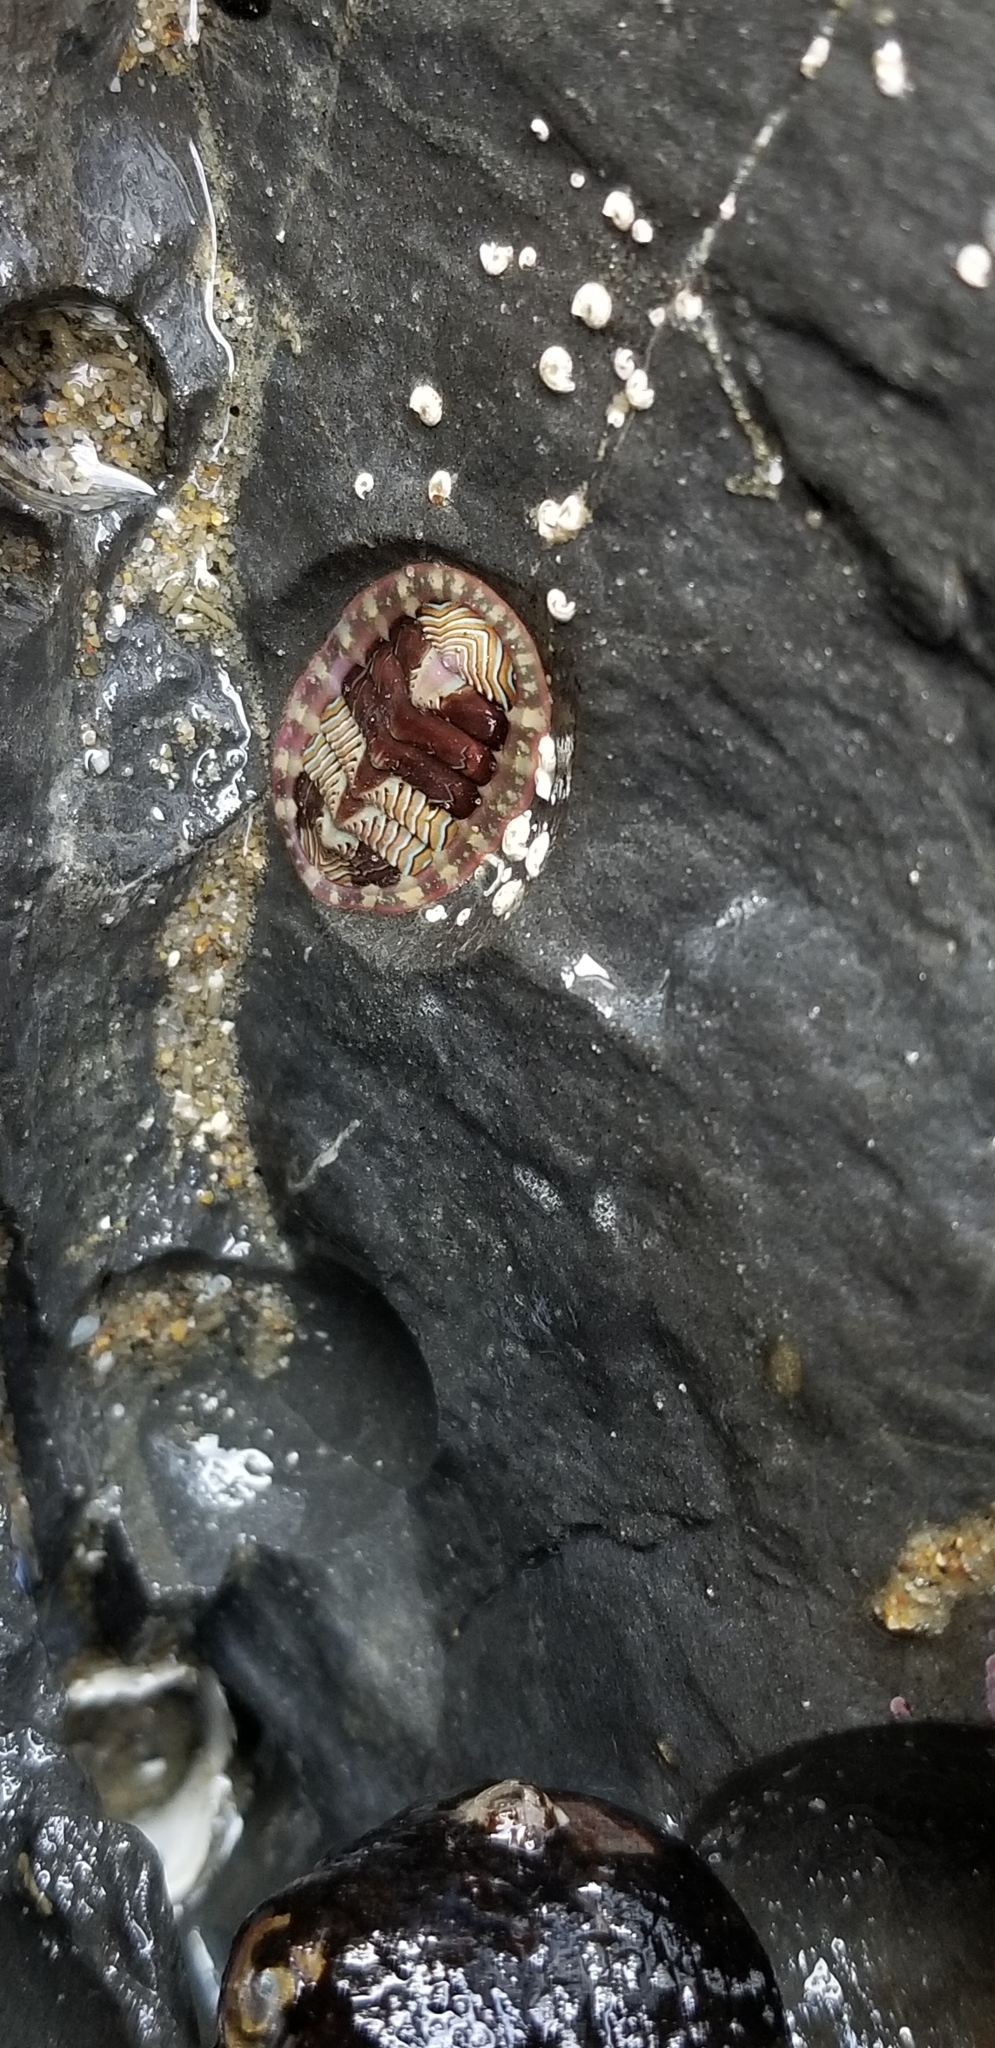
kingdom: Animalia
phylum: Mollusca
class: Polyplacophora
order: Chitonida
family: Tonicellidae
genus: Tonicella
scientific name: Tonicella lineata
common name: Lined chiton
